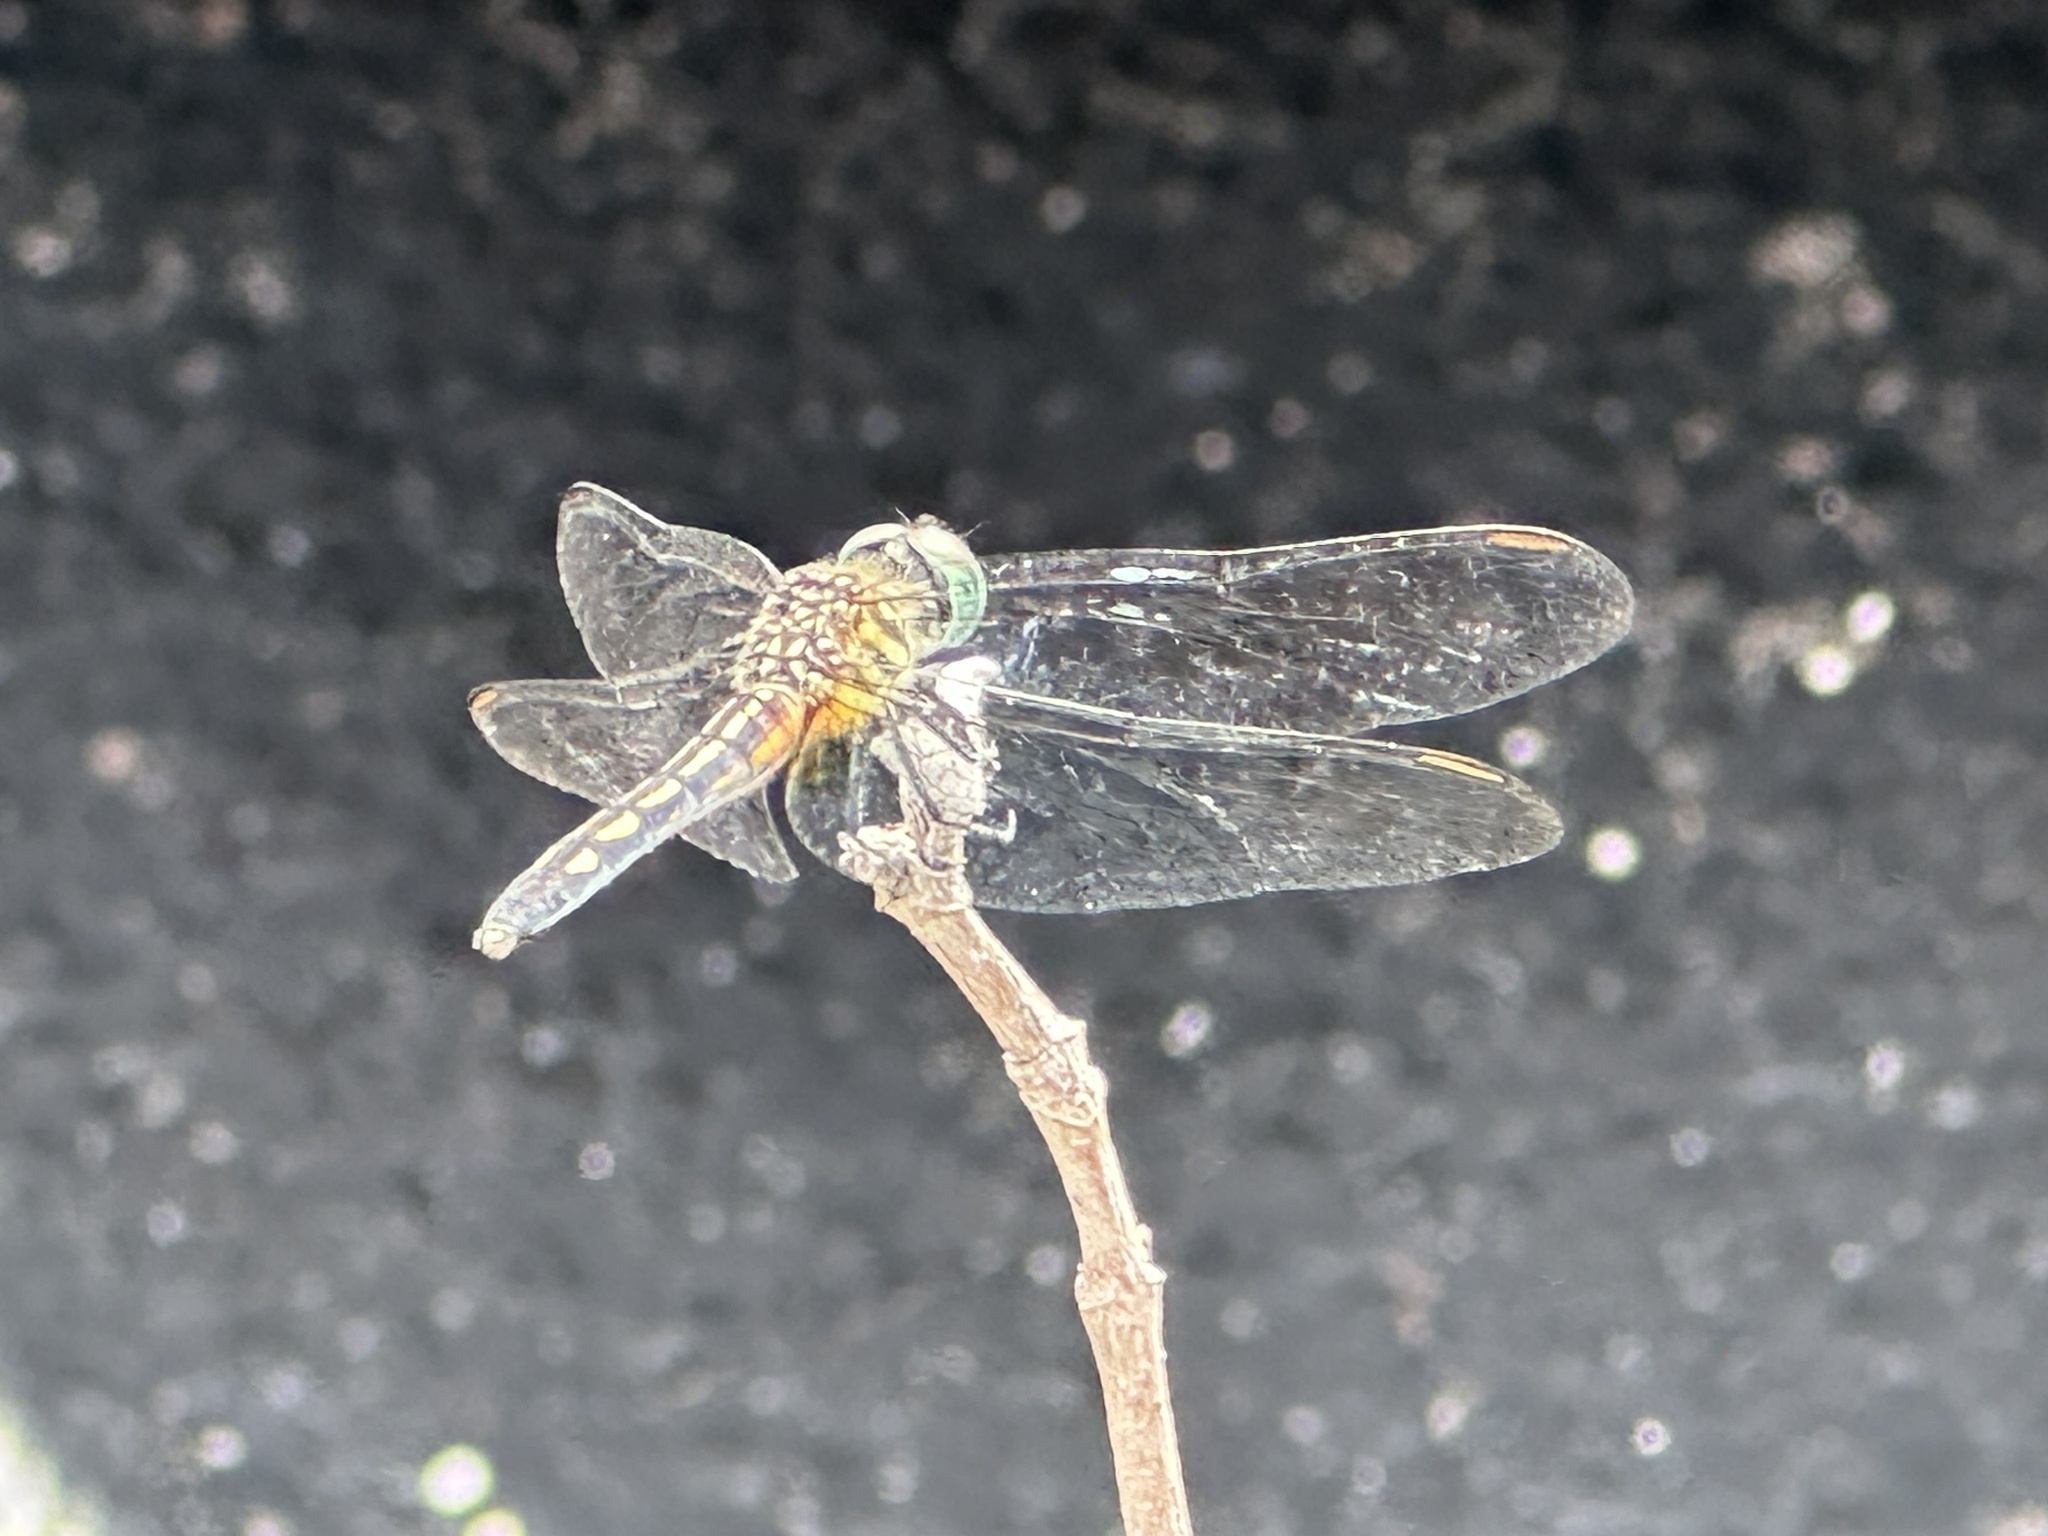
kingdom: Animalia
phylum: Arthropoda
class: Insecta
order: Odonata
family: Libellulidae
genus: Pachydiplax
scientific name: Pachydiplax longipennis
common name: Blue dasher
